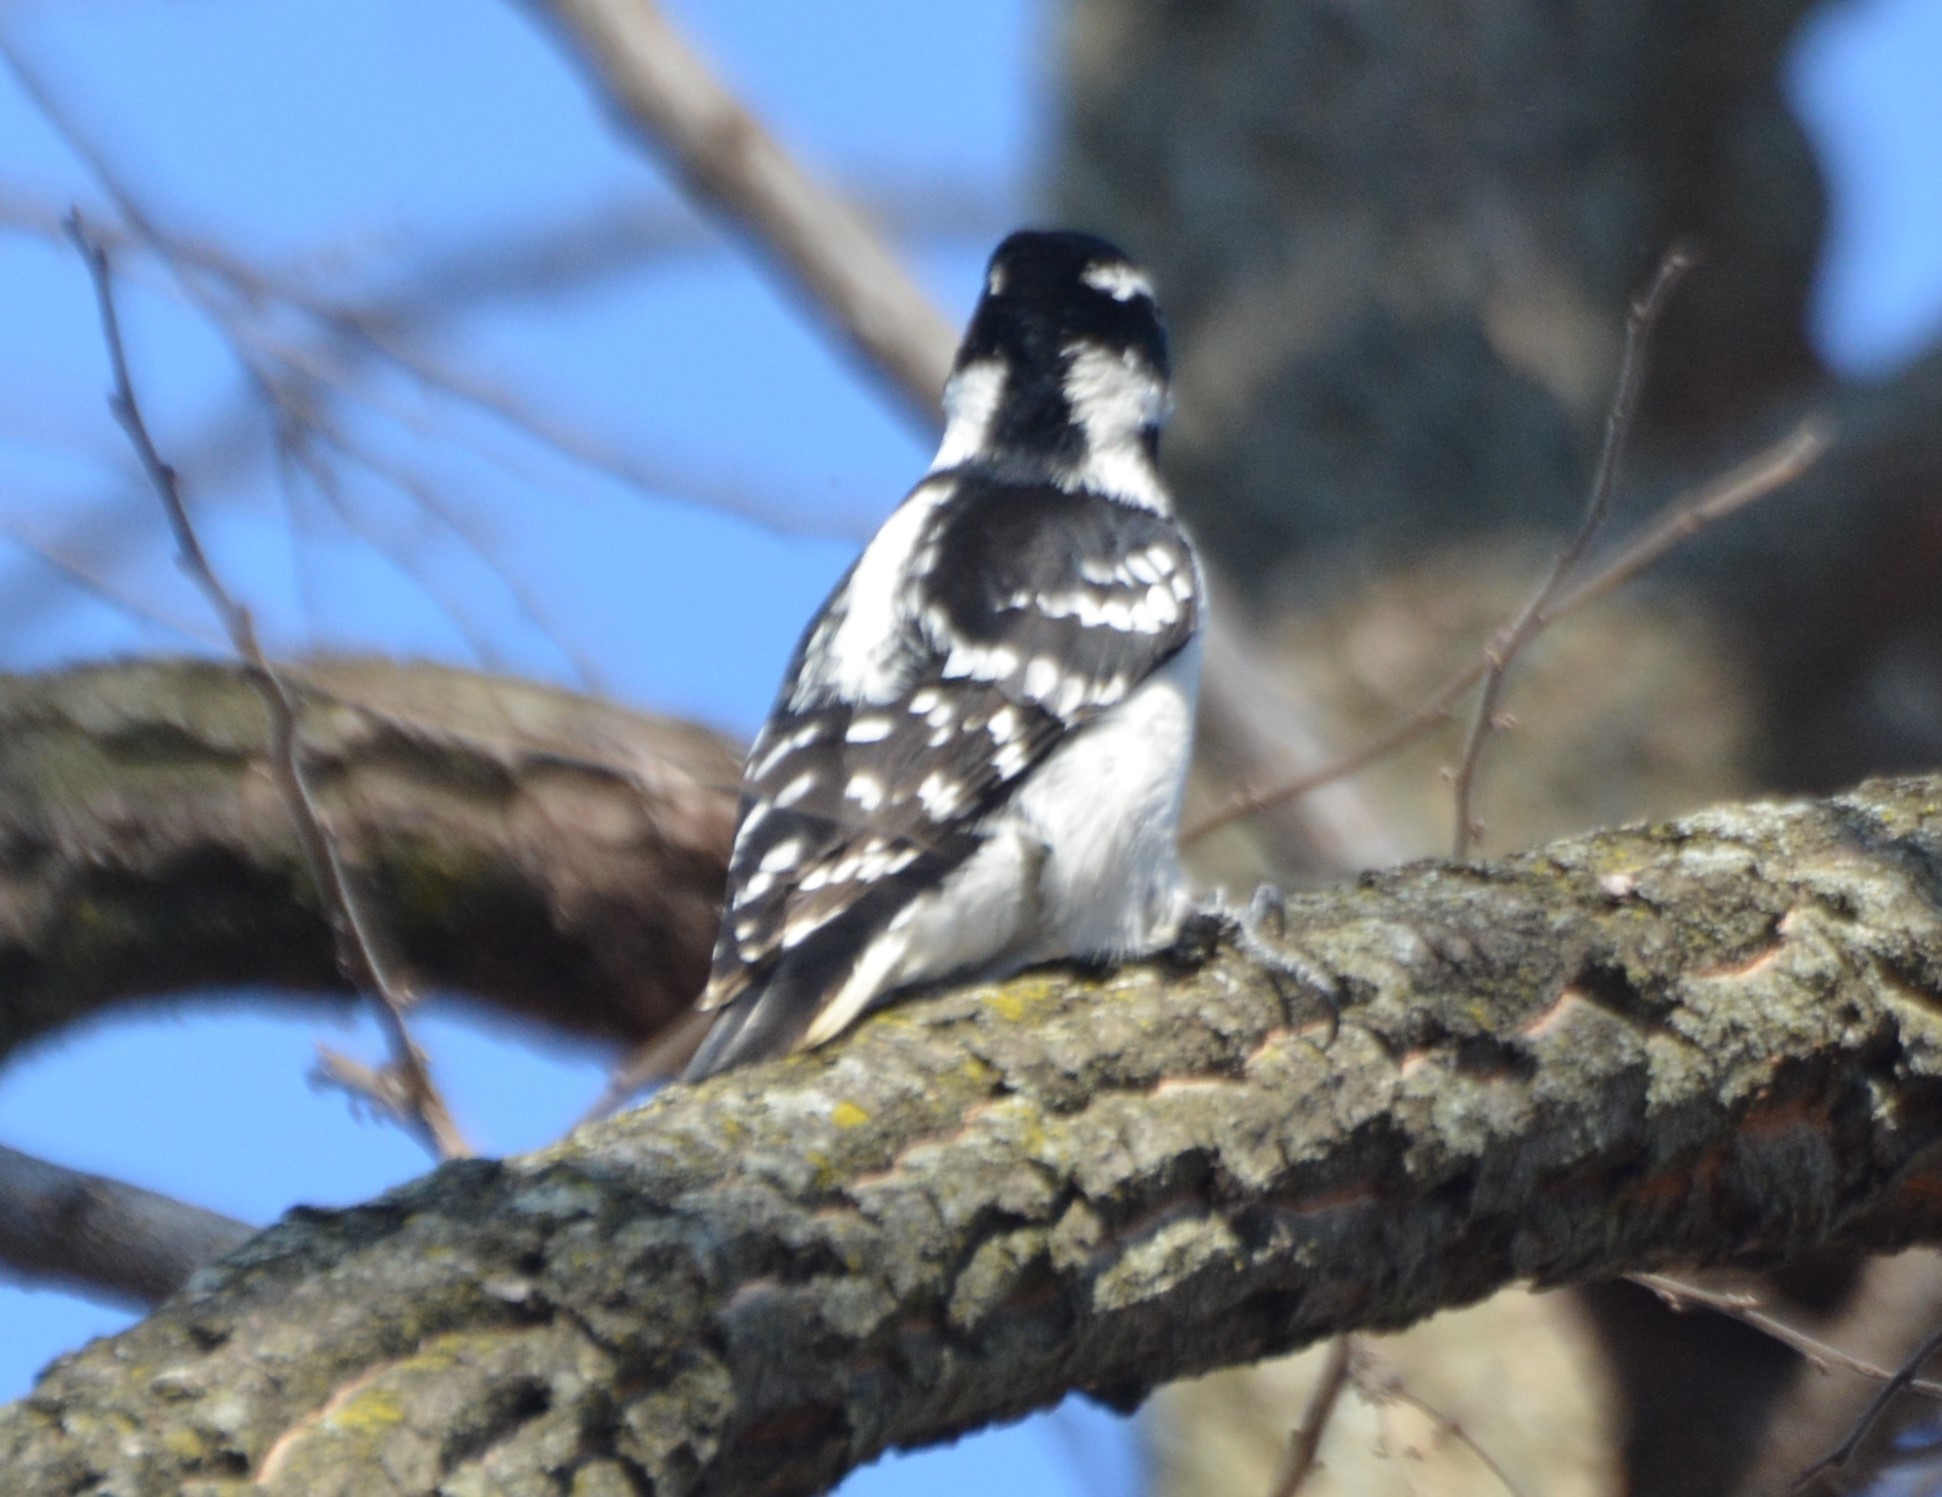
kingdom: Animalia
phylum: Chordata
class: Aves
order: Piciformes
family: Picidae
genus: Leuconotopicus
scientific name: Leuconotopicus villosus
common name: Hairy woodpecker
